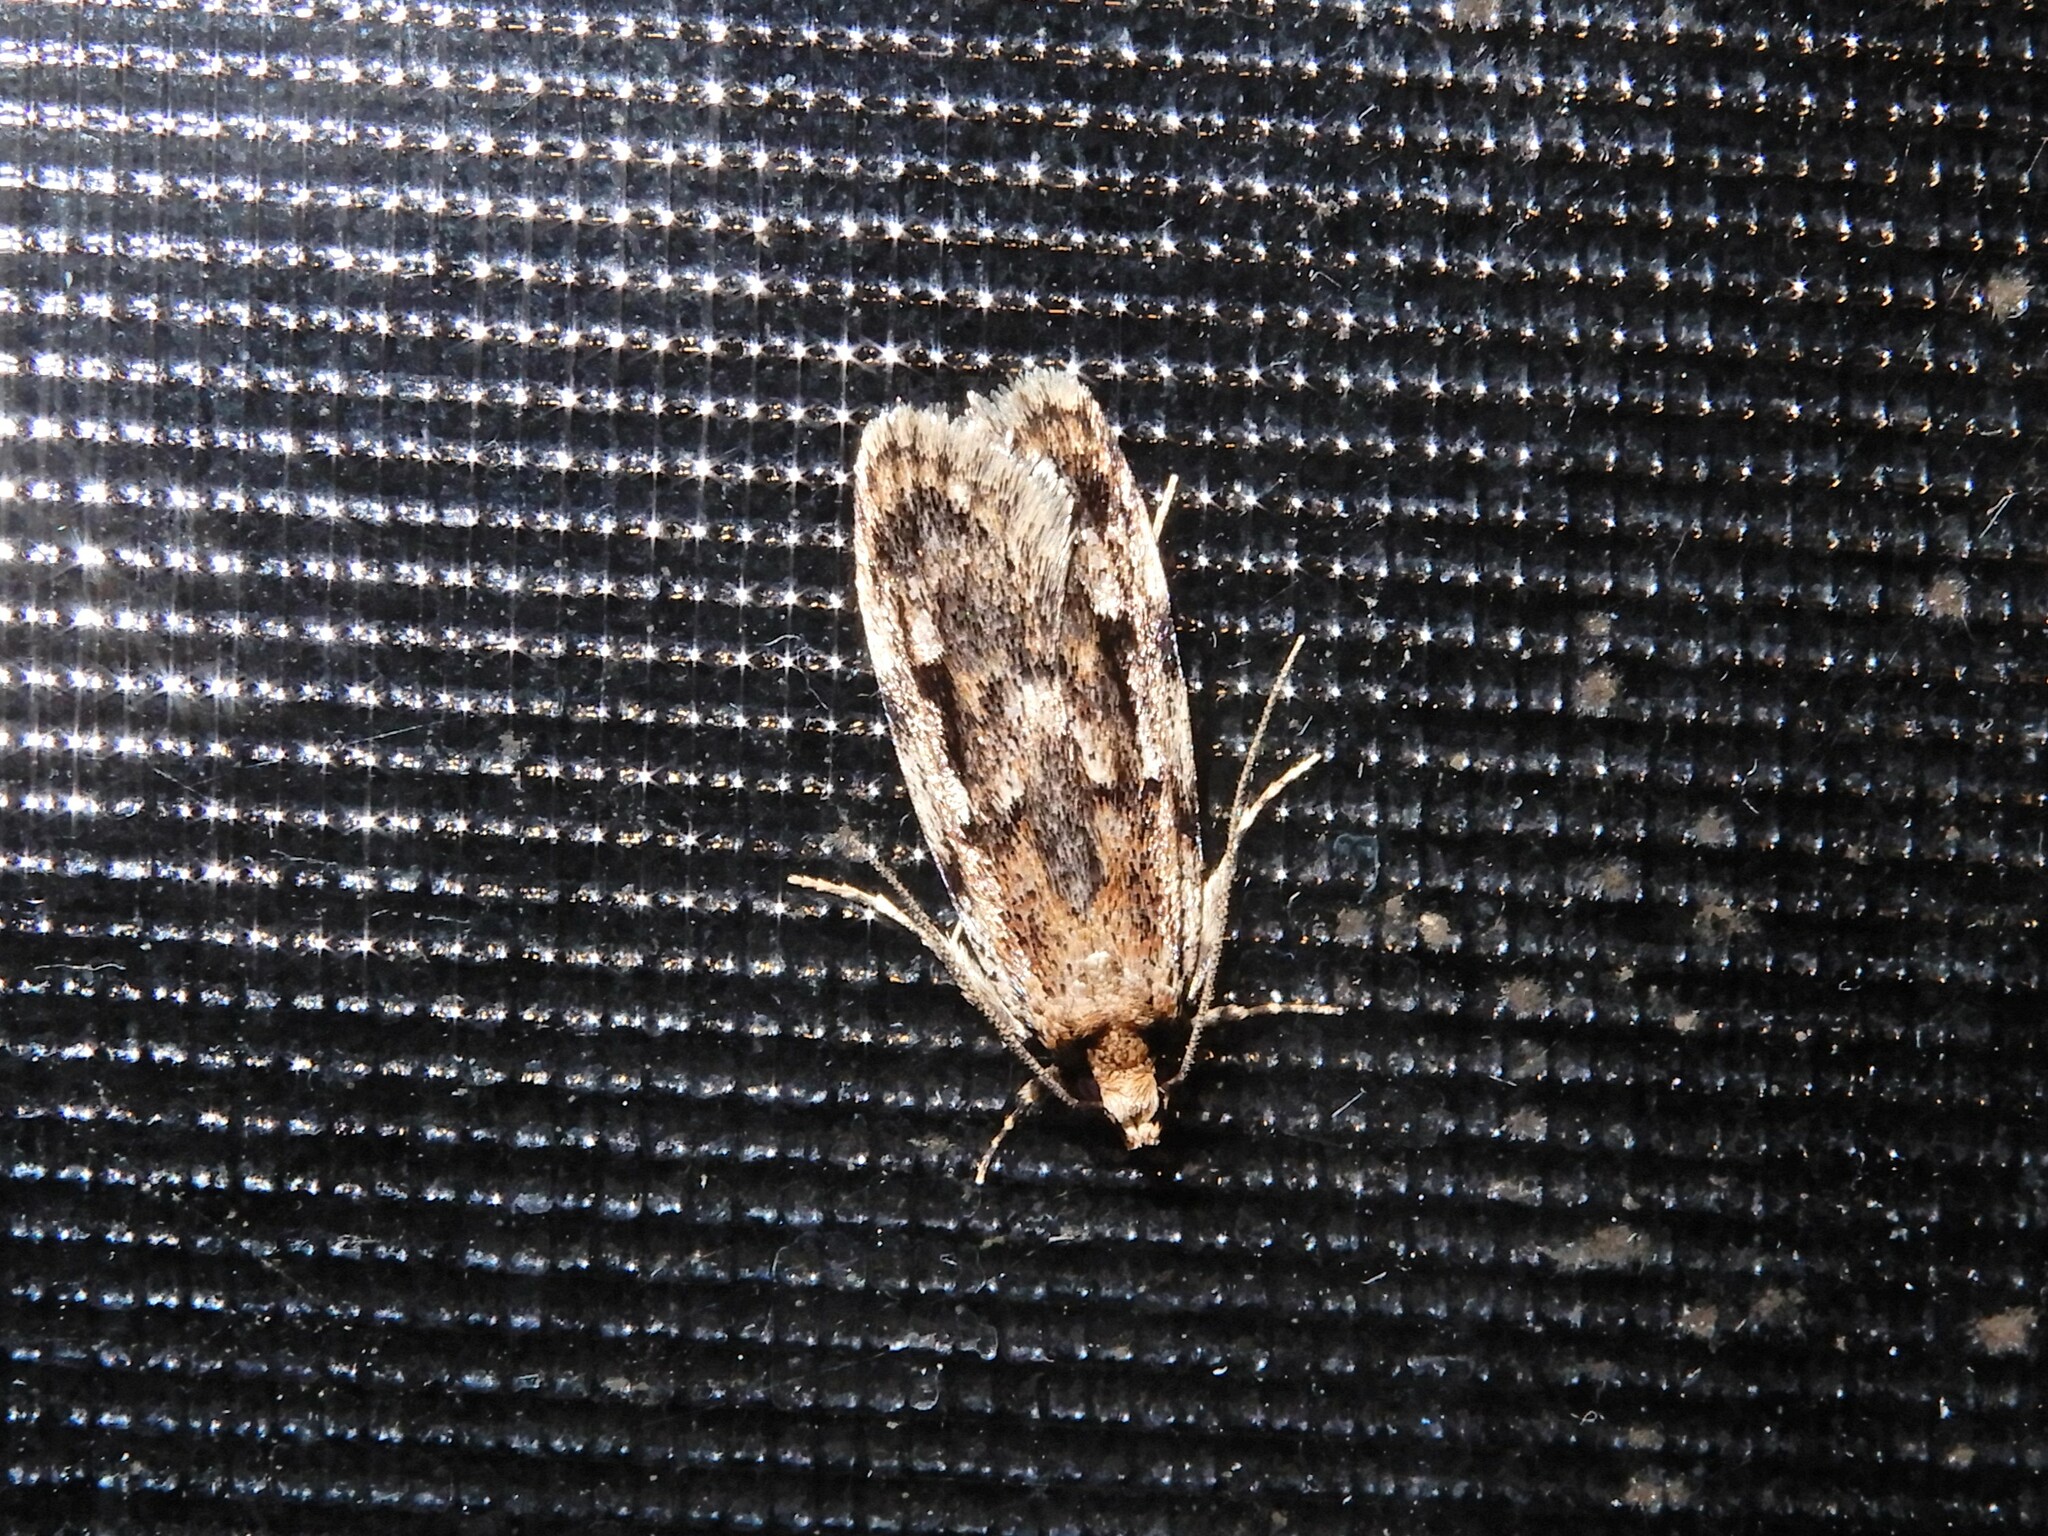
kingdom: Animalia
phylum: Arthropoda
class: Insecta
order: Lepidoptera
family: Oecophoridae
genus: Barea
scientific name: Barea exarcha
